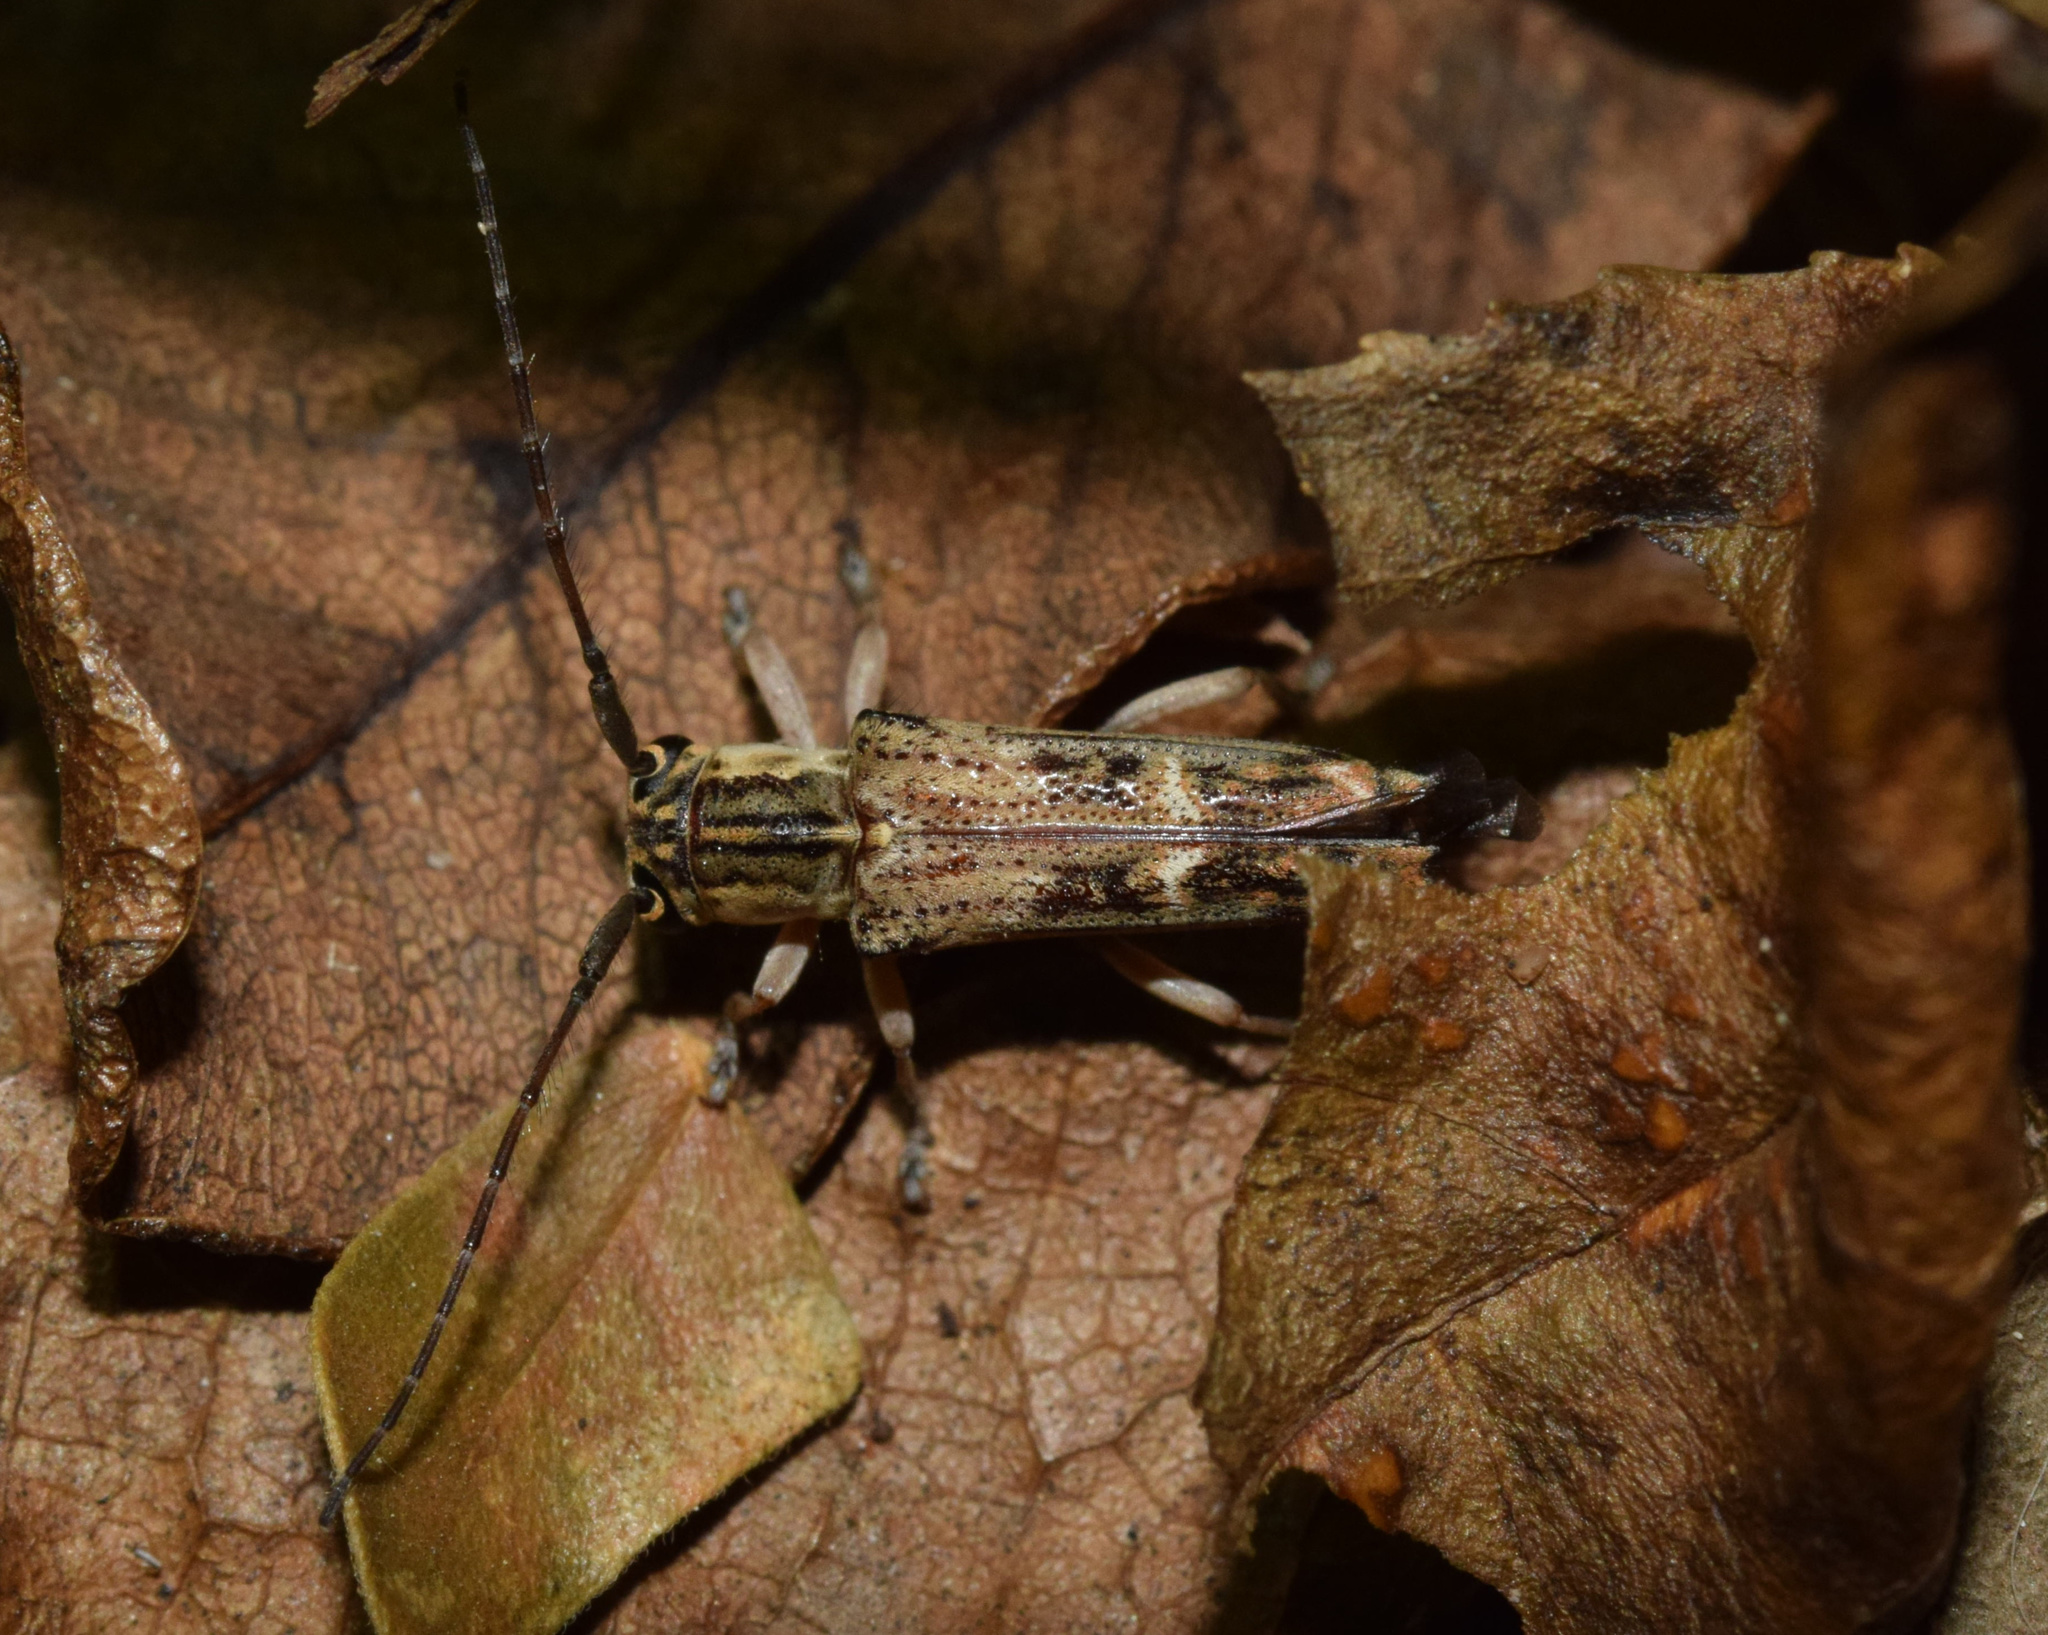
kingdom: Animalia
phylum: Arthropoda
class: Insecta
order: Coleoptera
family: Cerambycidae
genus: Glenea
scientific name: Glenea arida
